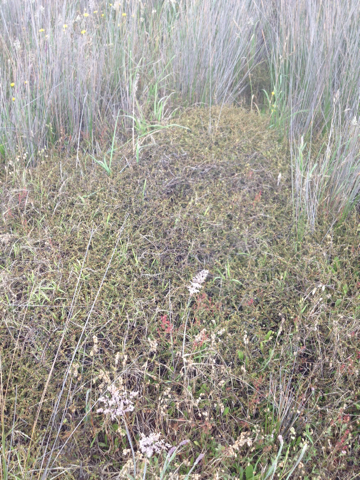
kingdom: Plantae
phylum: Tracheophyta
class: Magnoliopsida
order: Gentianales
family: Rubiaceae
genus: Coprosma
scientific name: Coprosma acerosa
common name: Sand coprosma
